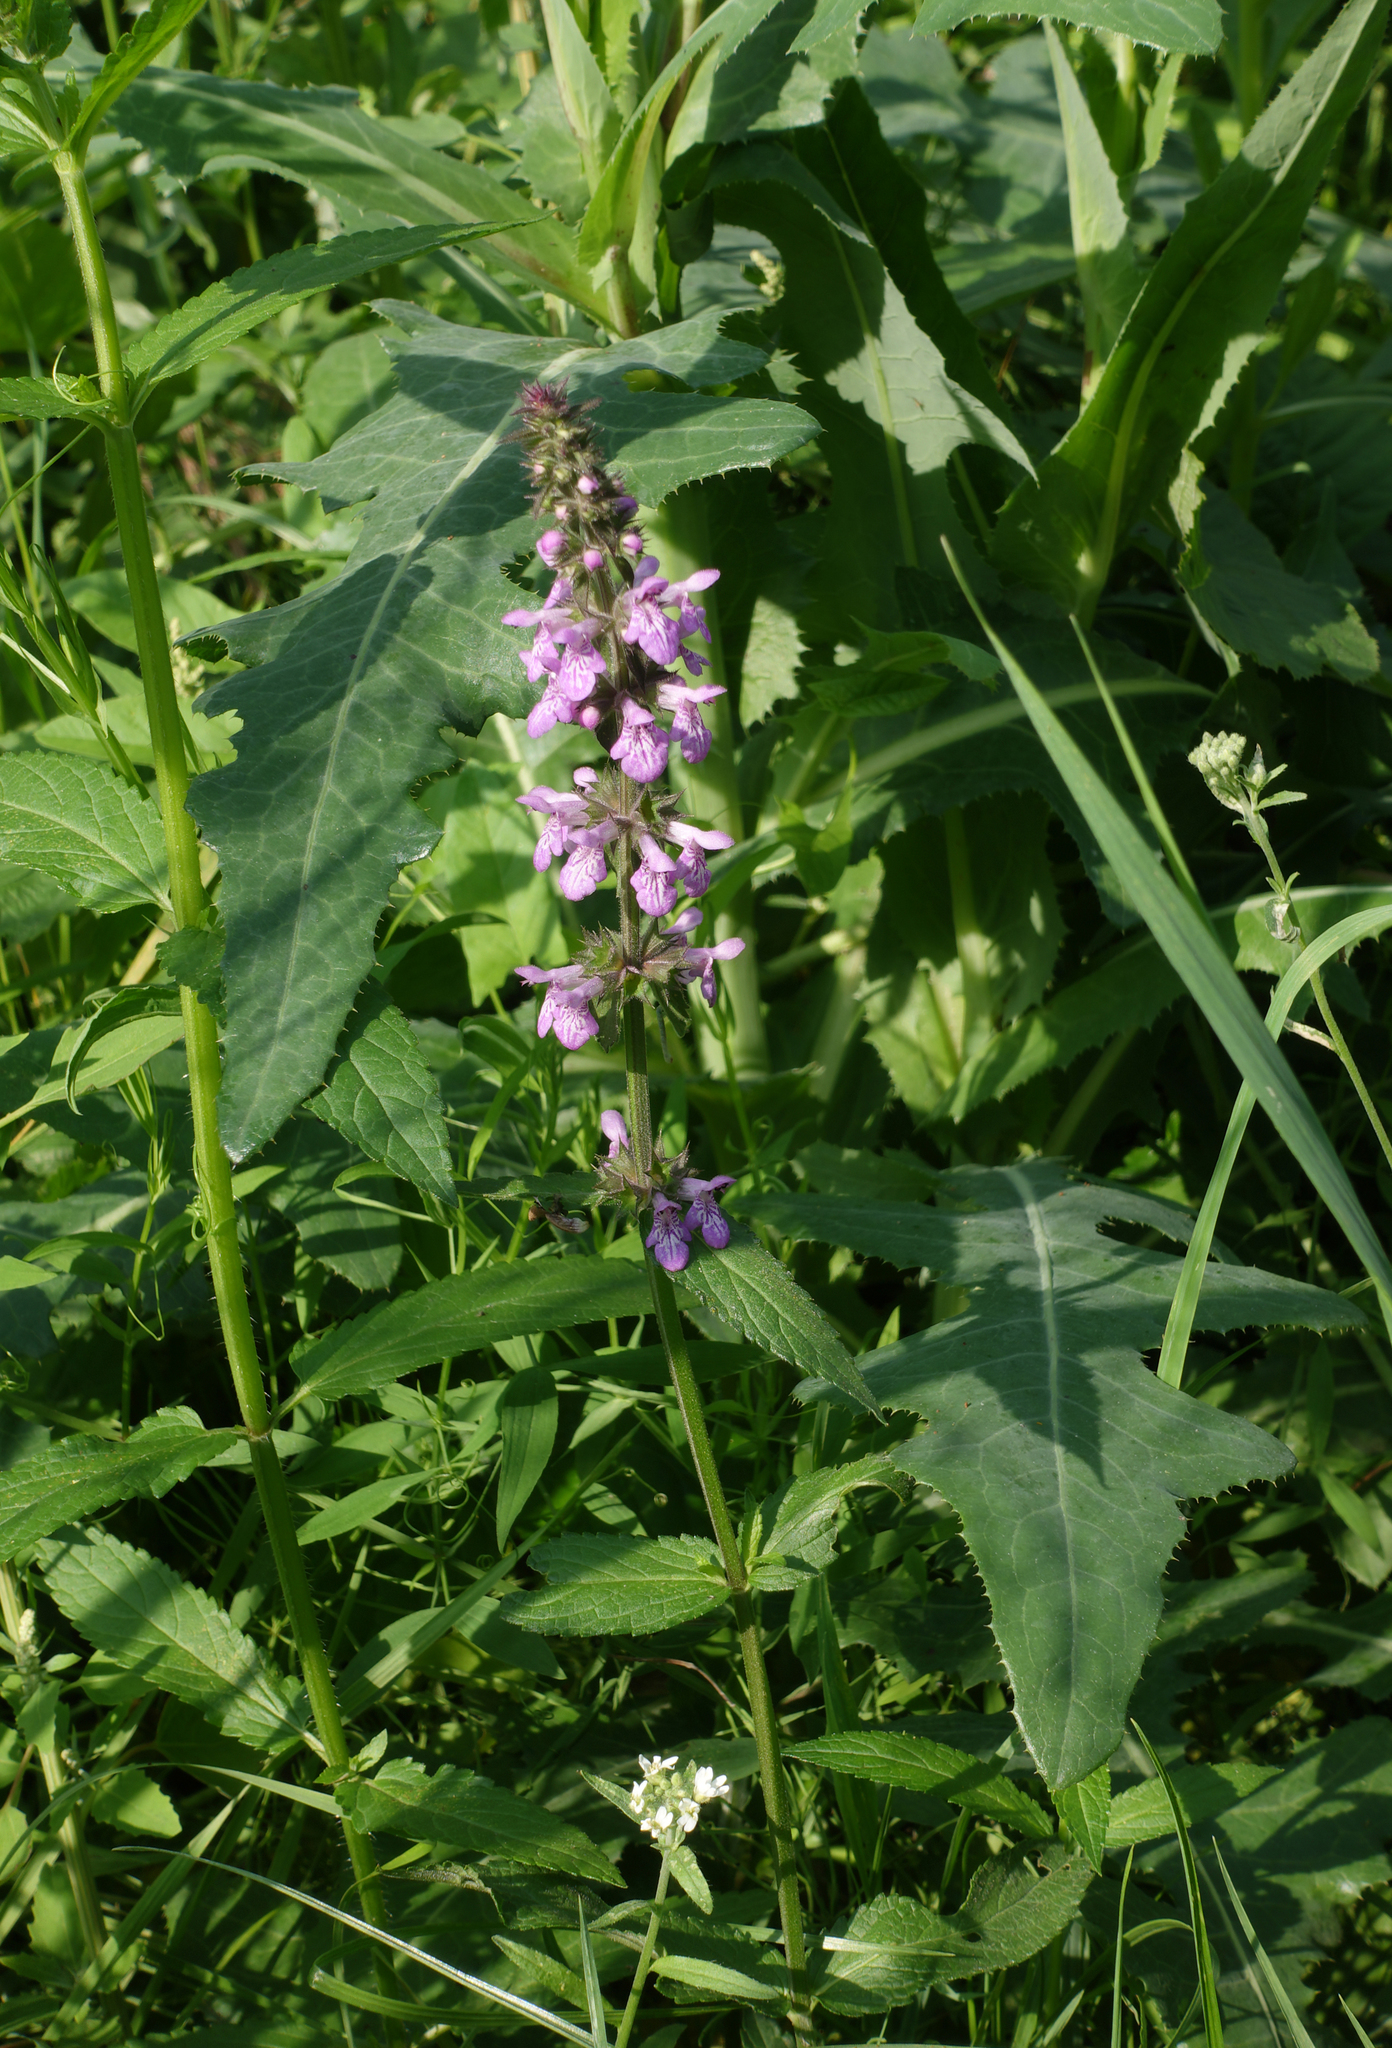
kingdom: Plantae
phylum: Tracheophyta
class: Magnoliopsida
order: Lamiales
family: Lamiaceae
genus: Stachys
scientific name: Stachys palustris
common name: Marsh woundwort
